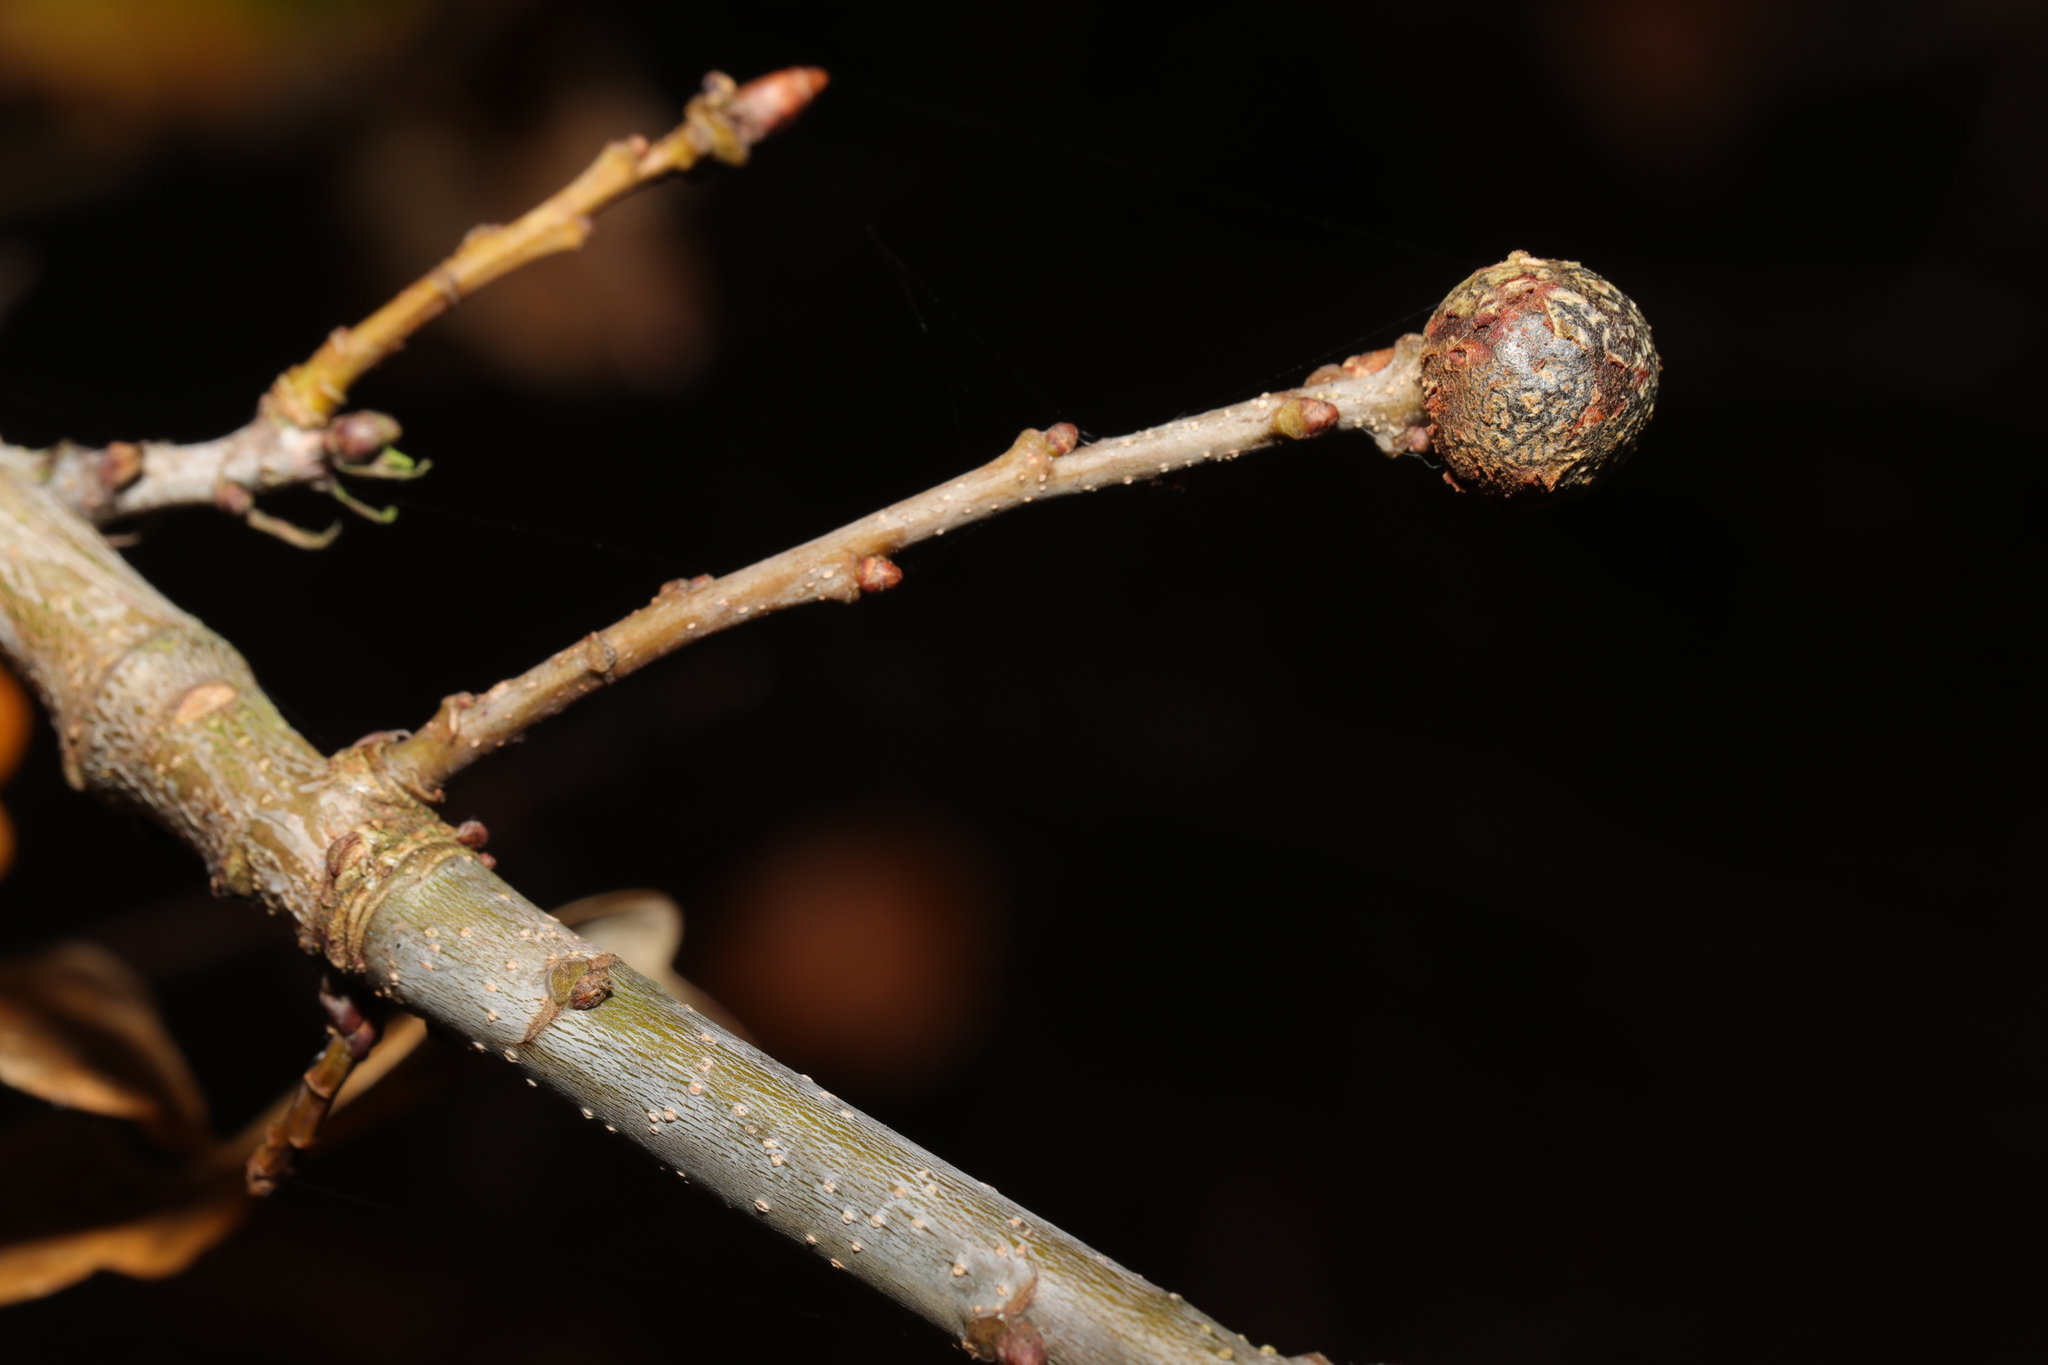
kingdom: Animalia
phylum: Arthropoda
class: Insecta
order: Hymenoptera
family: Cynipidae
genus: Andricus
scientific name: Andricus lignicolus
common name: Cola-nut gall
